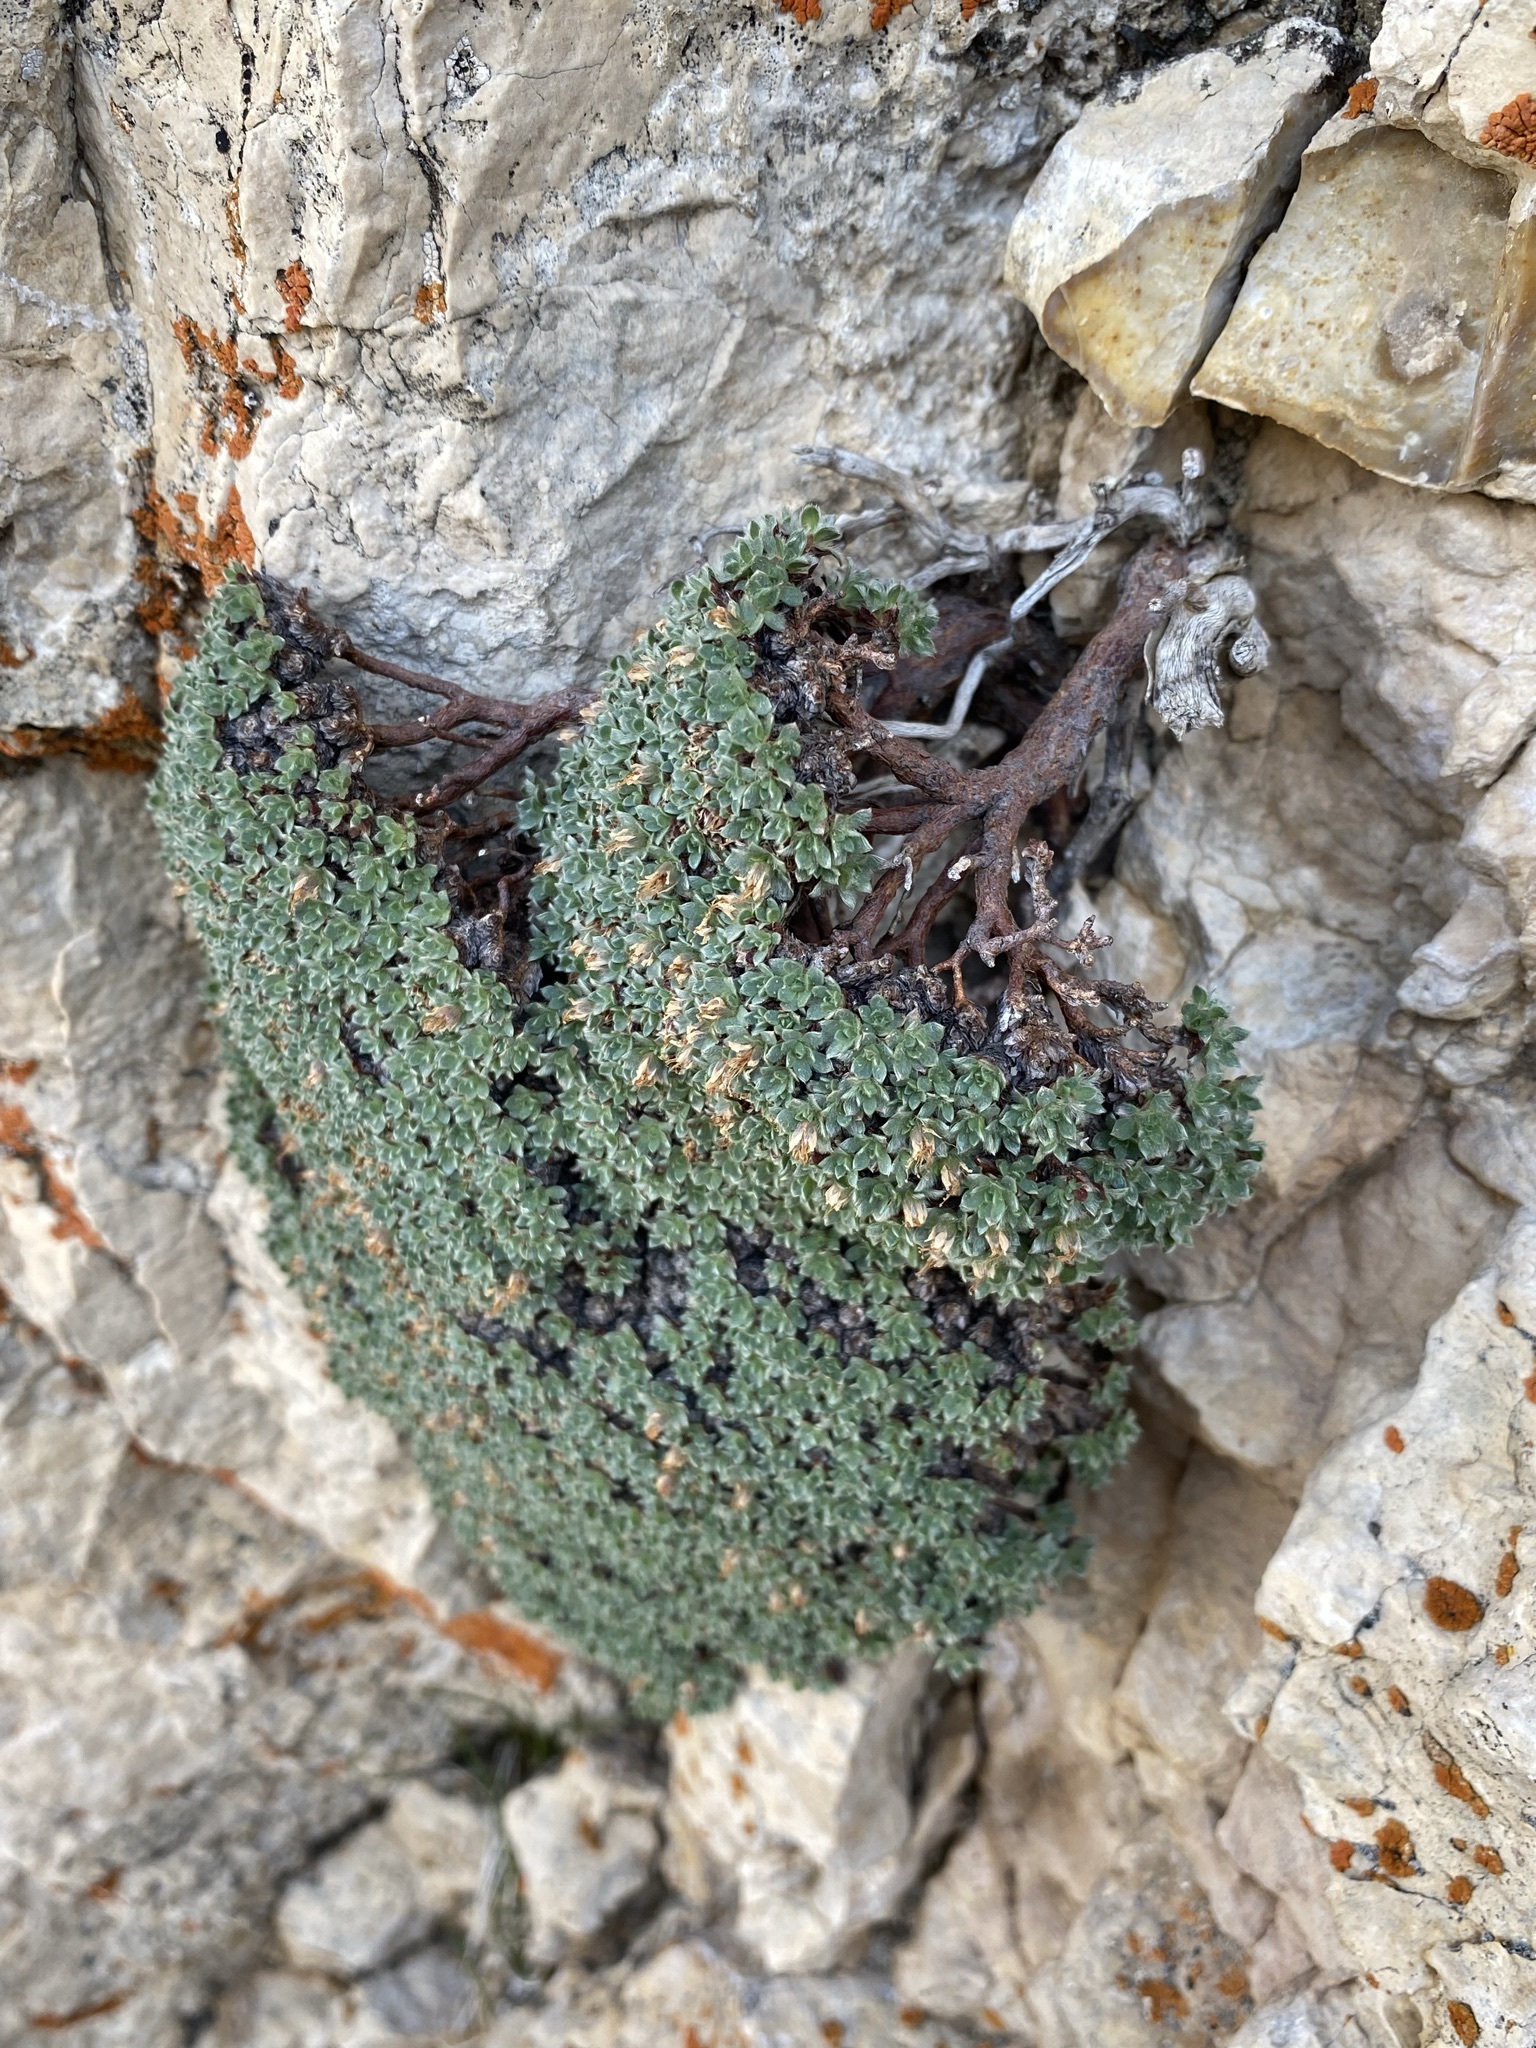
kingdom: Plantae
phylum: Tracheophyta
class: Magnoliopsida
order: Rosales
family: Rosaceae
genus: Kelseya
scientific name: Kelseya uniflora
